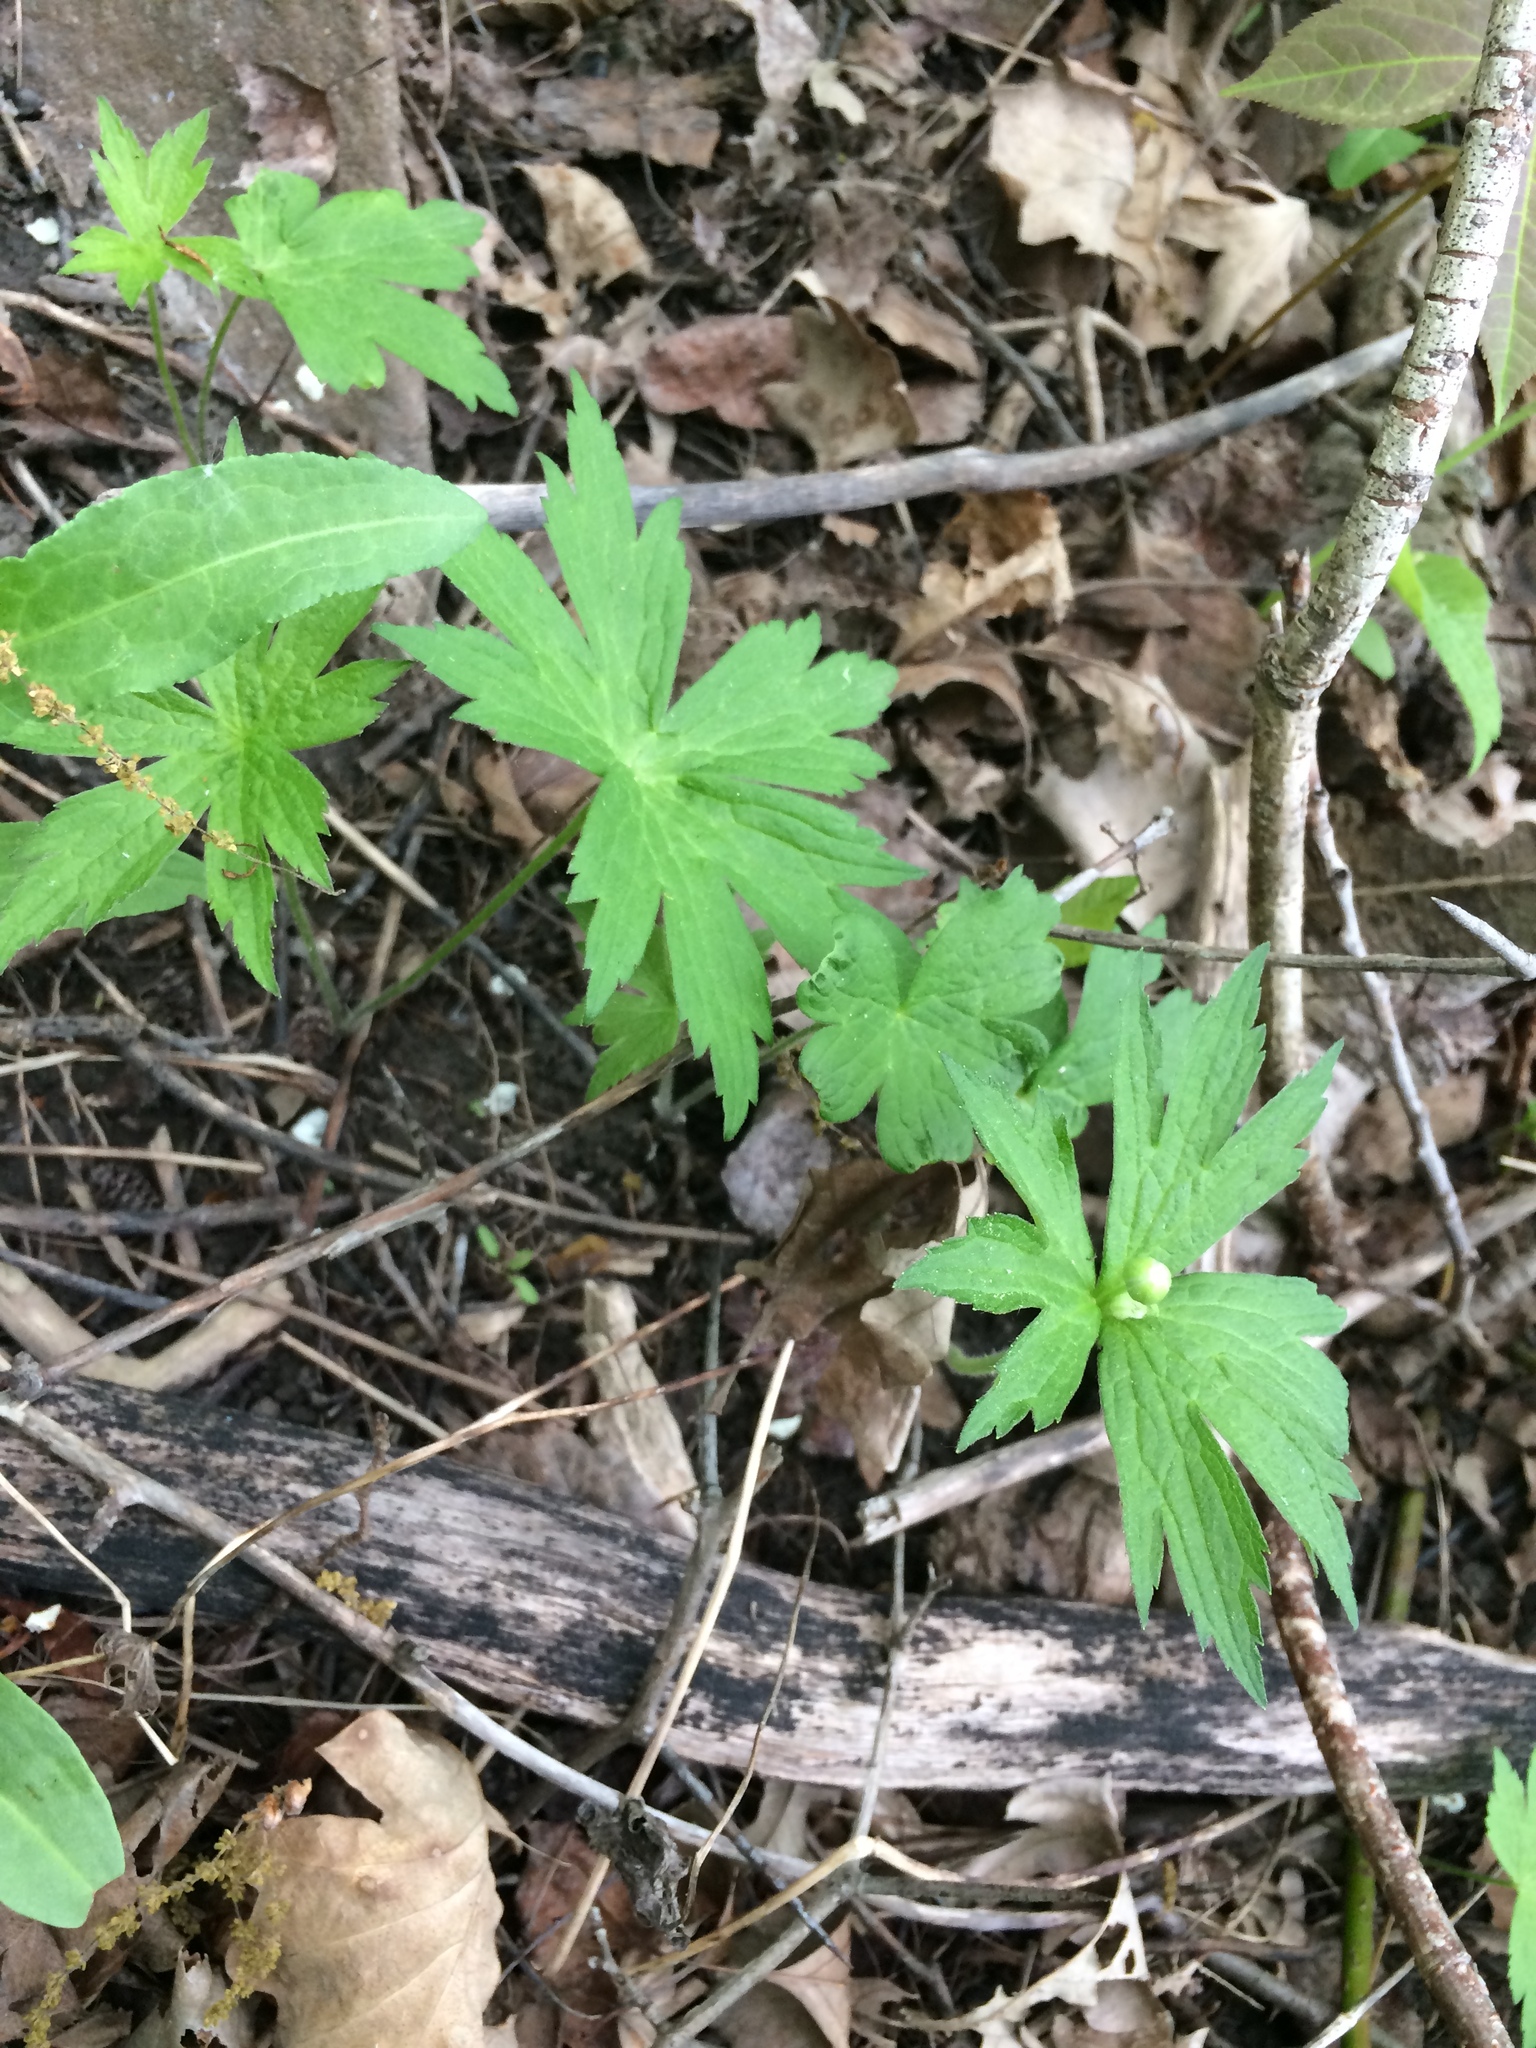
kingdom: Plantae
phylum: Tracheophyta
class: Magnoliopsida
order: Ranunculales
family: Ranunculaceae
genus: Anemonastrum
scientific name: Anemonastrum canadense
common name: Canada anemone
